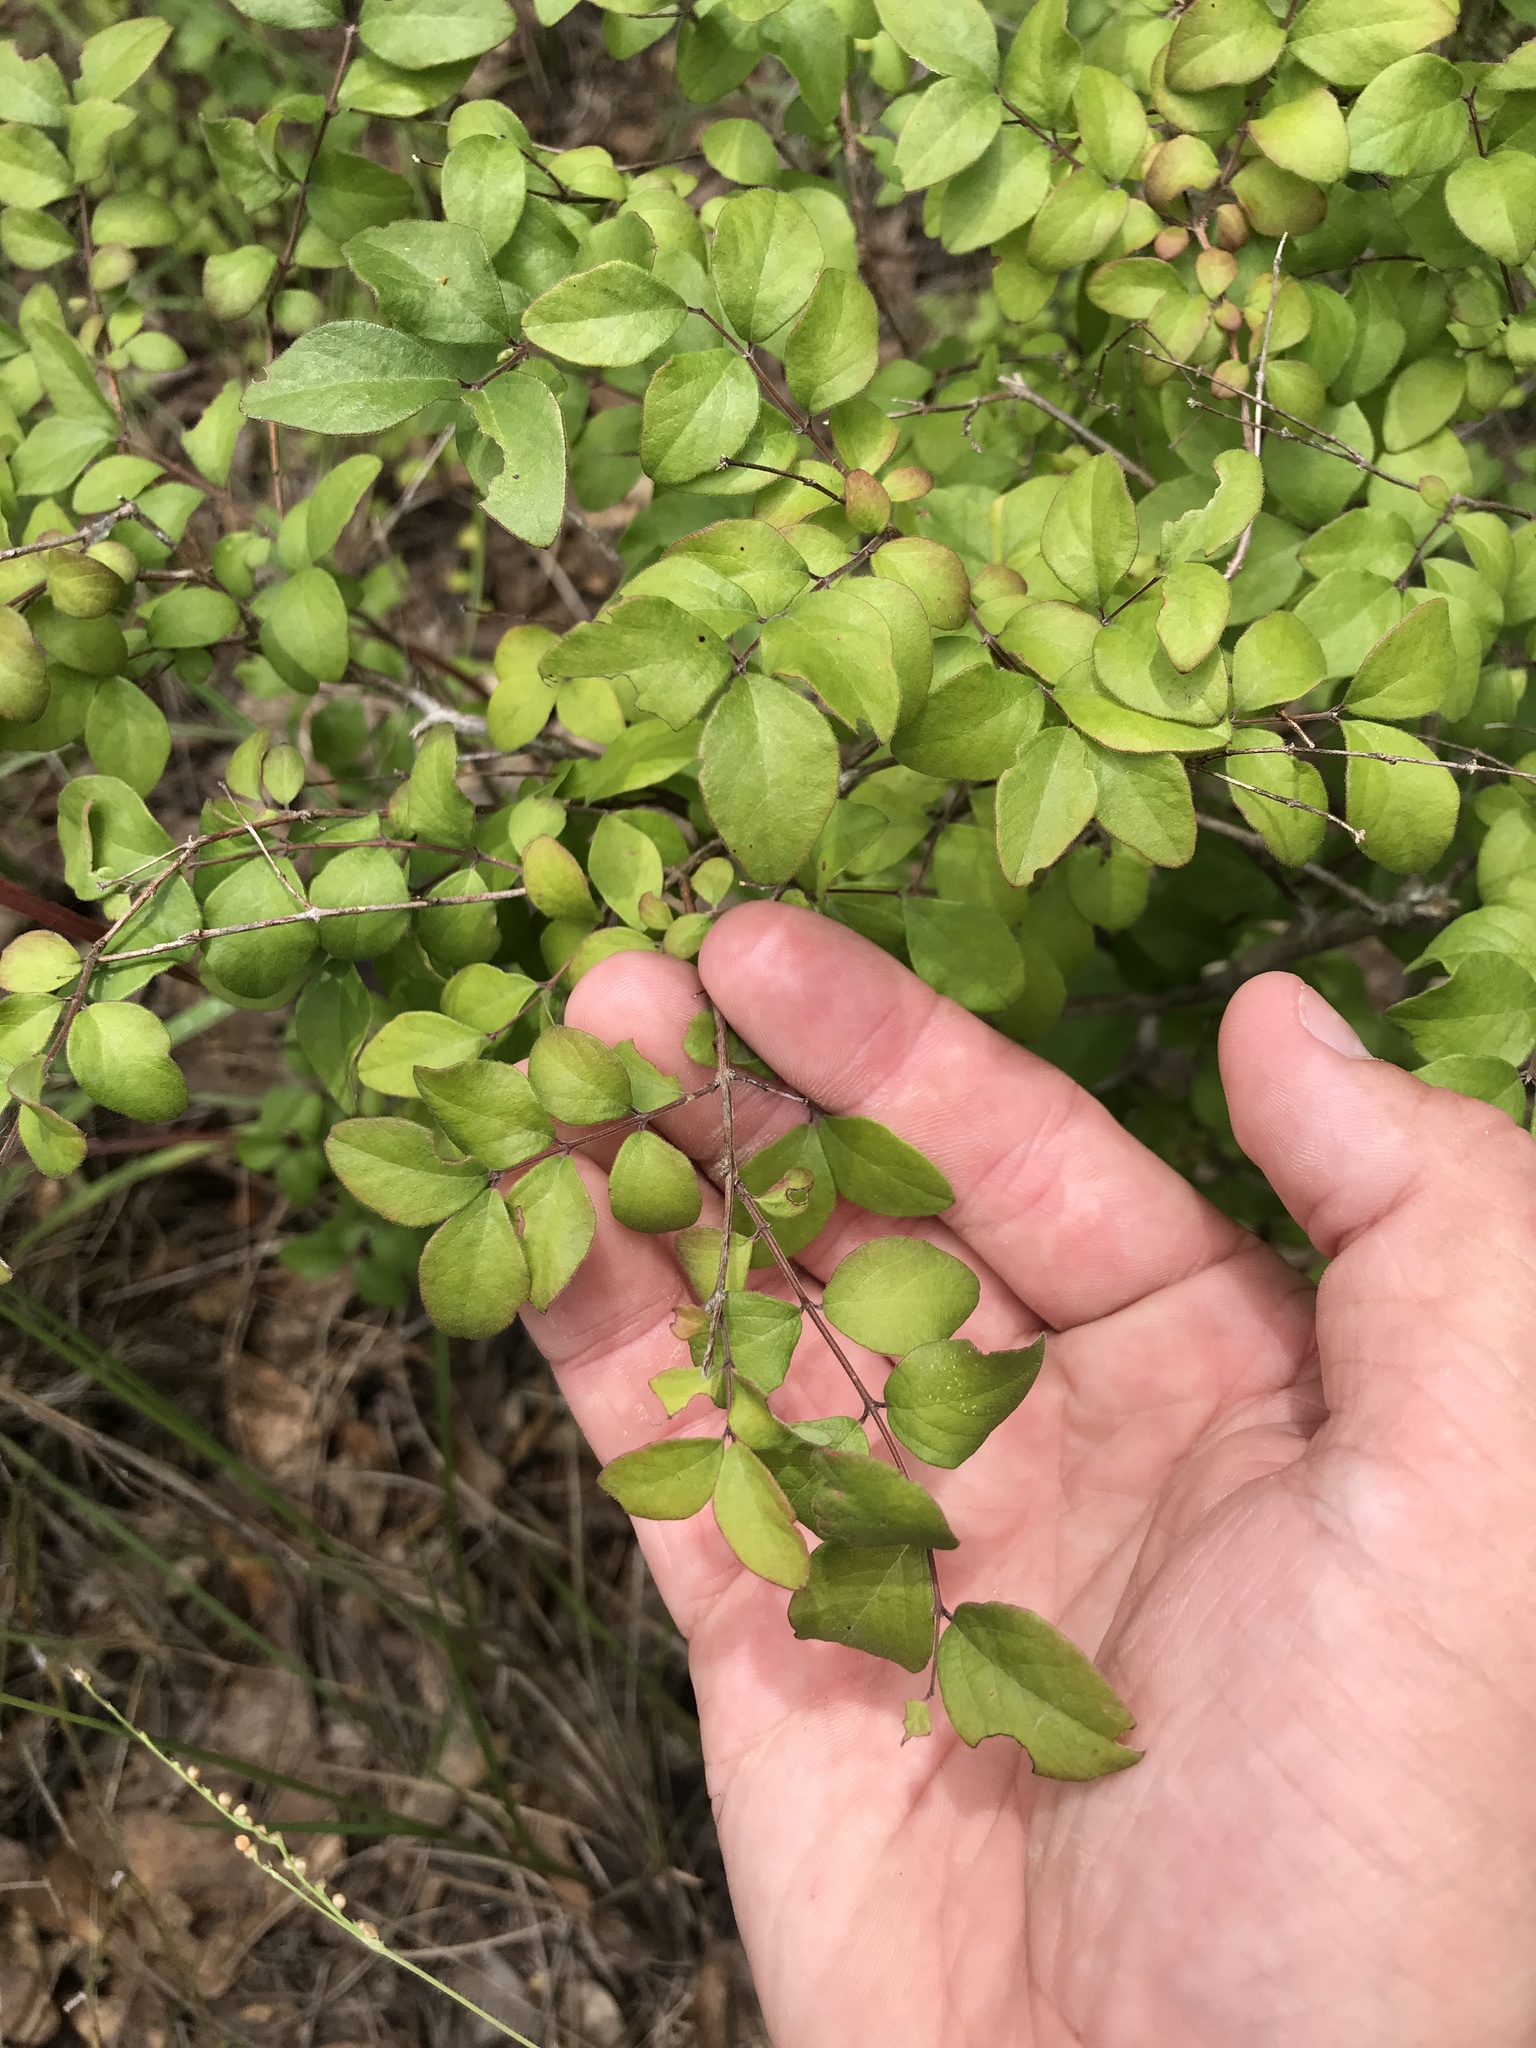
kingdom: Plantae
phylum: Tracheophyta
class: Magnoliopsida
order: Dipsacales
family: Caprifoliaceae
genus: Symphoricarpos
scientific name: Symphoricarpos orbiculatus
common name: Coralberry
